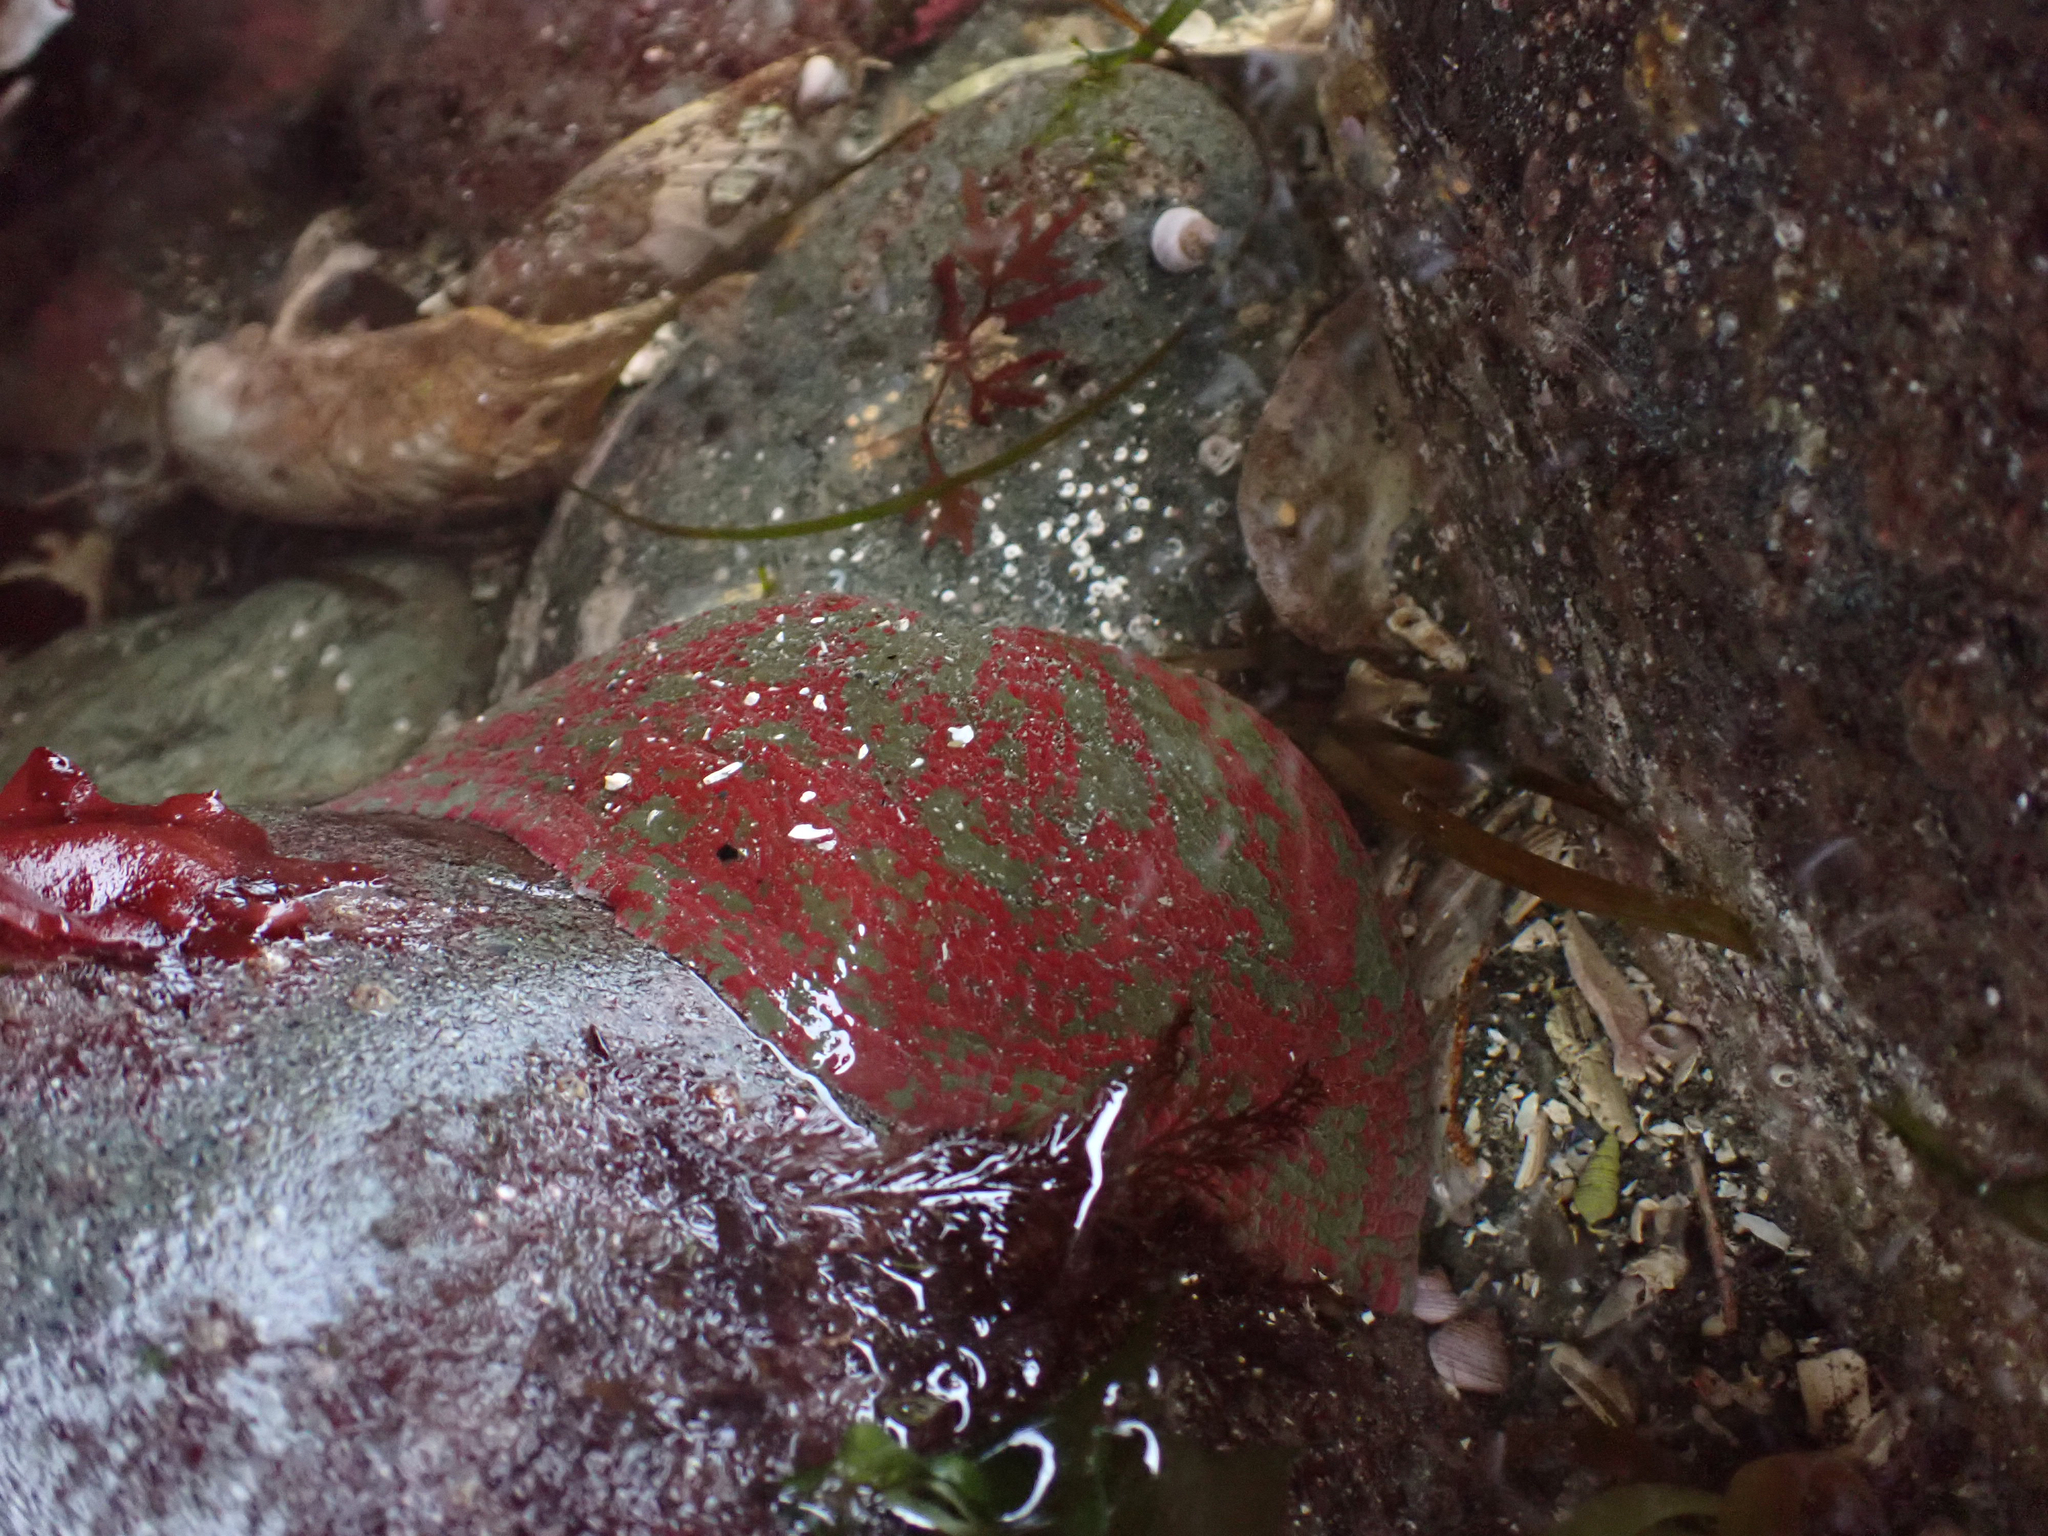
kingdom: Animalia
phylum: Cnidaria
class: Anthozoa
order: Actiniaria
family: Actiniidae
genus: Urticina
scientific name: Urticina grebelnyi
